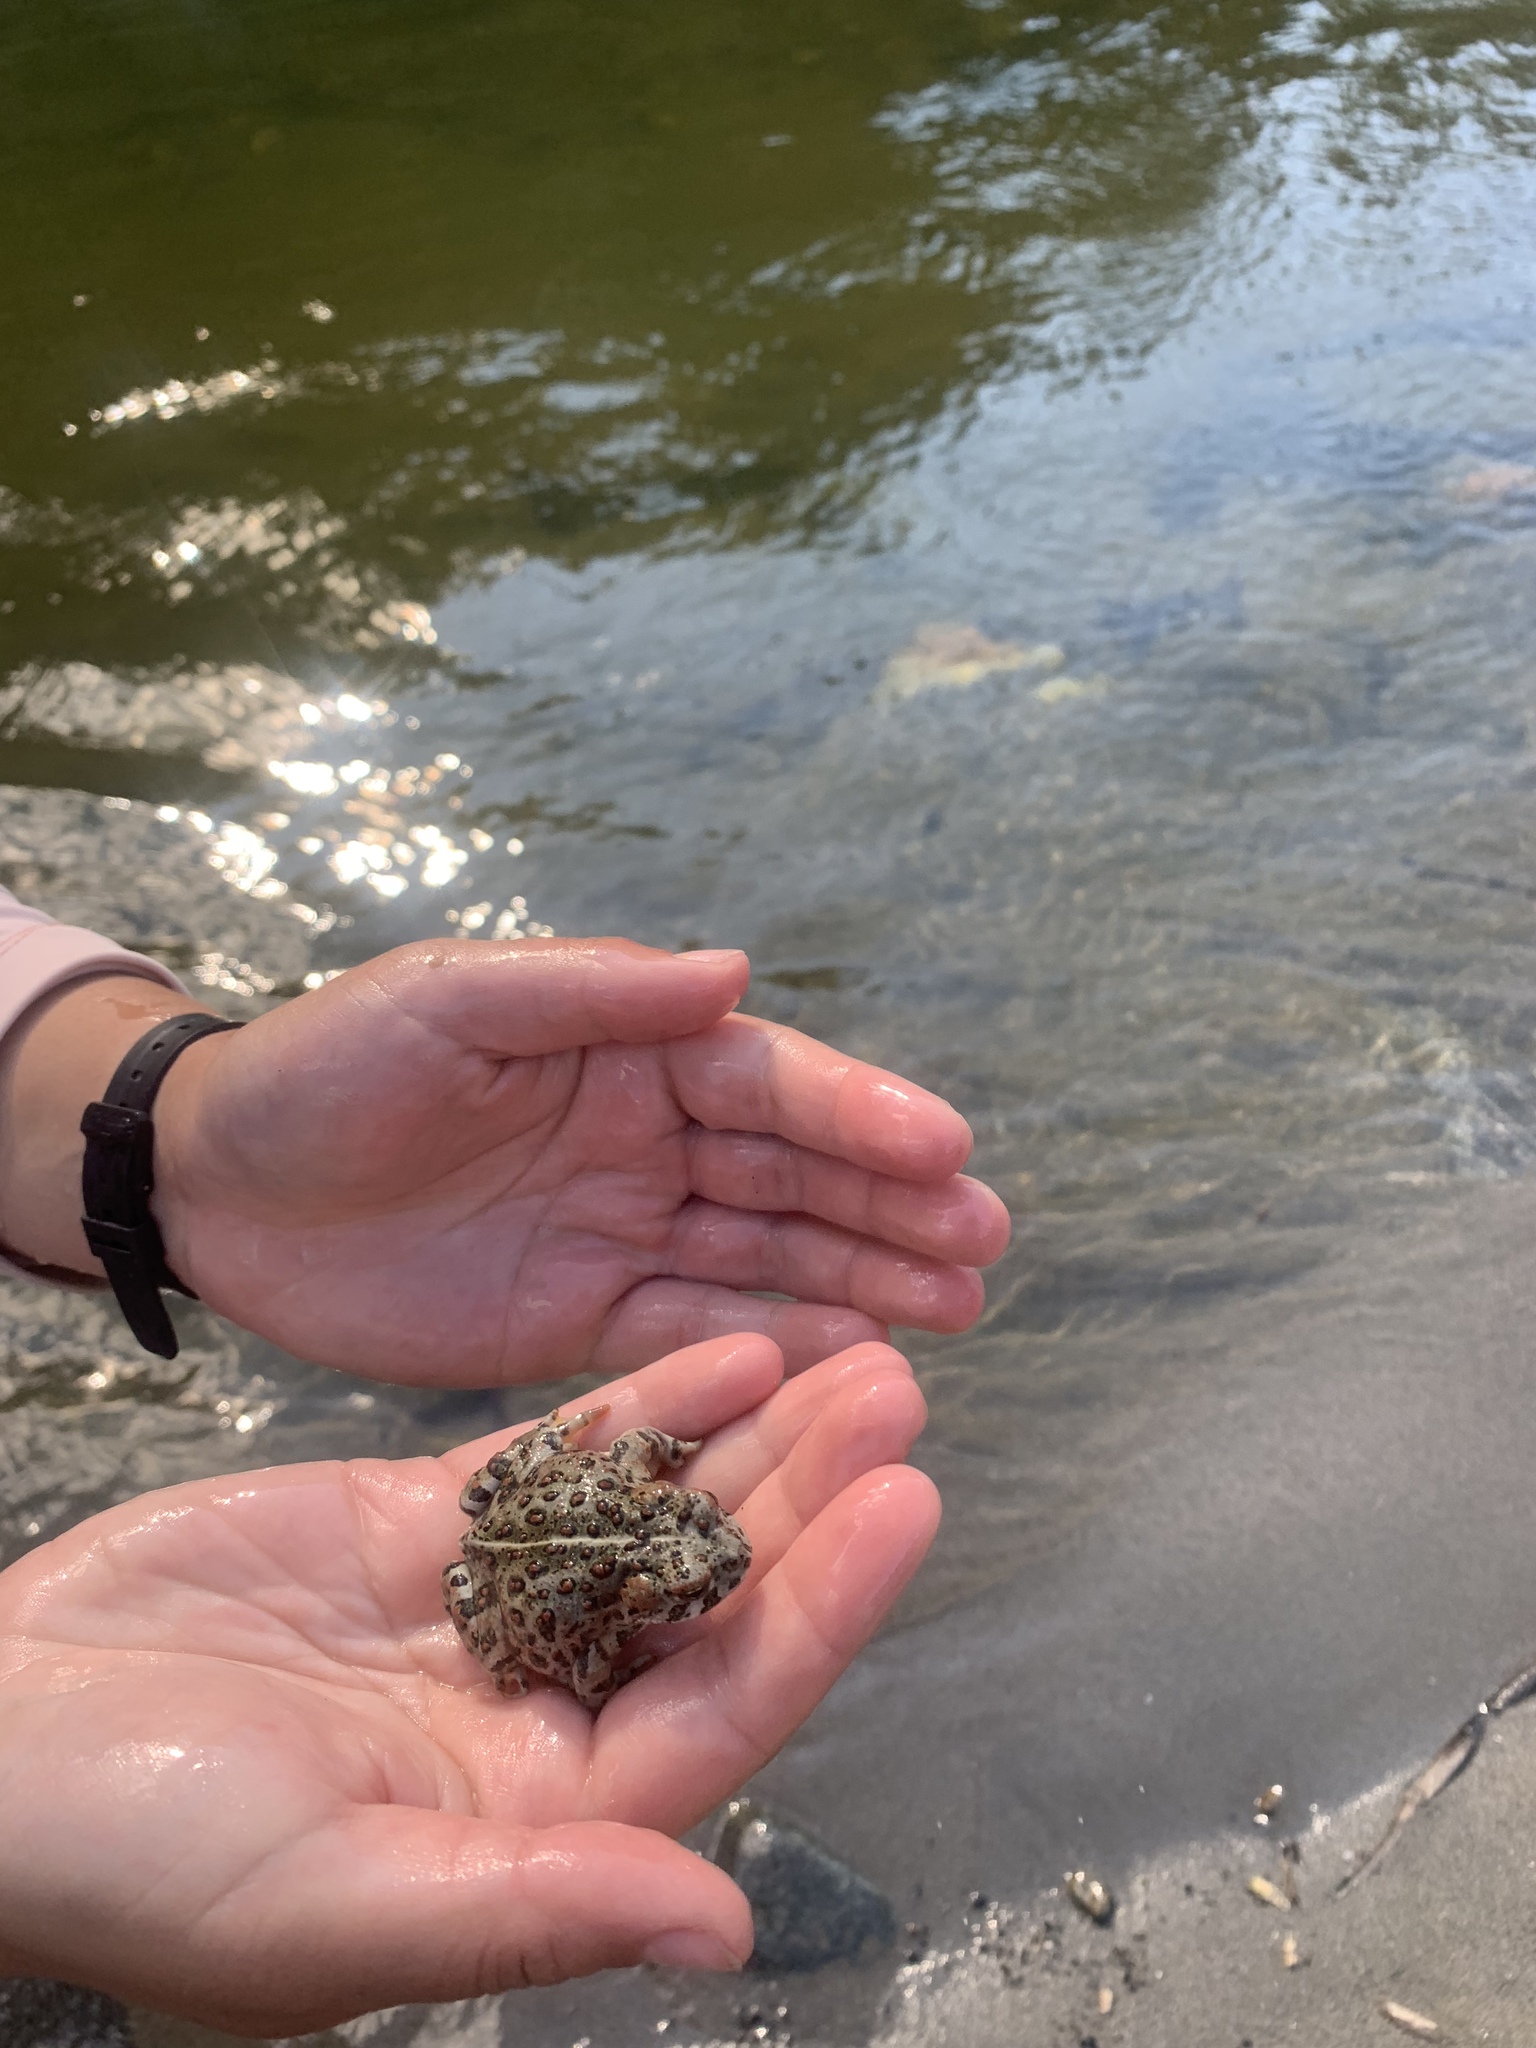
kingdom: Animalia
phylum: Chordata
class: Amphibia
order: Anura
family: Bufonidae
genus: Anaxyrus
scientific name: Anaxyrus boreas
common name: Western toad
